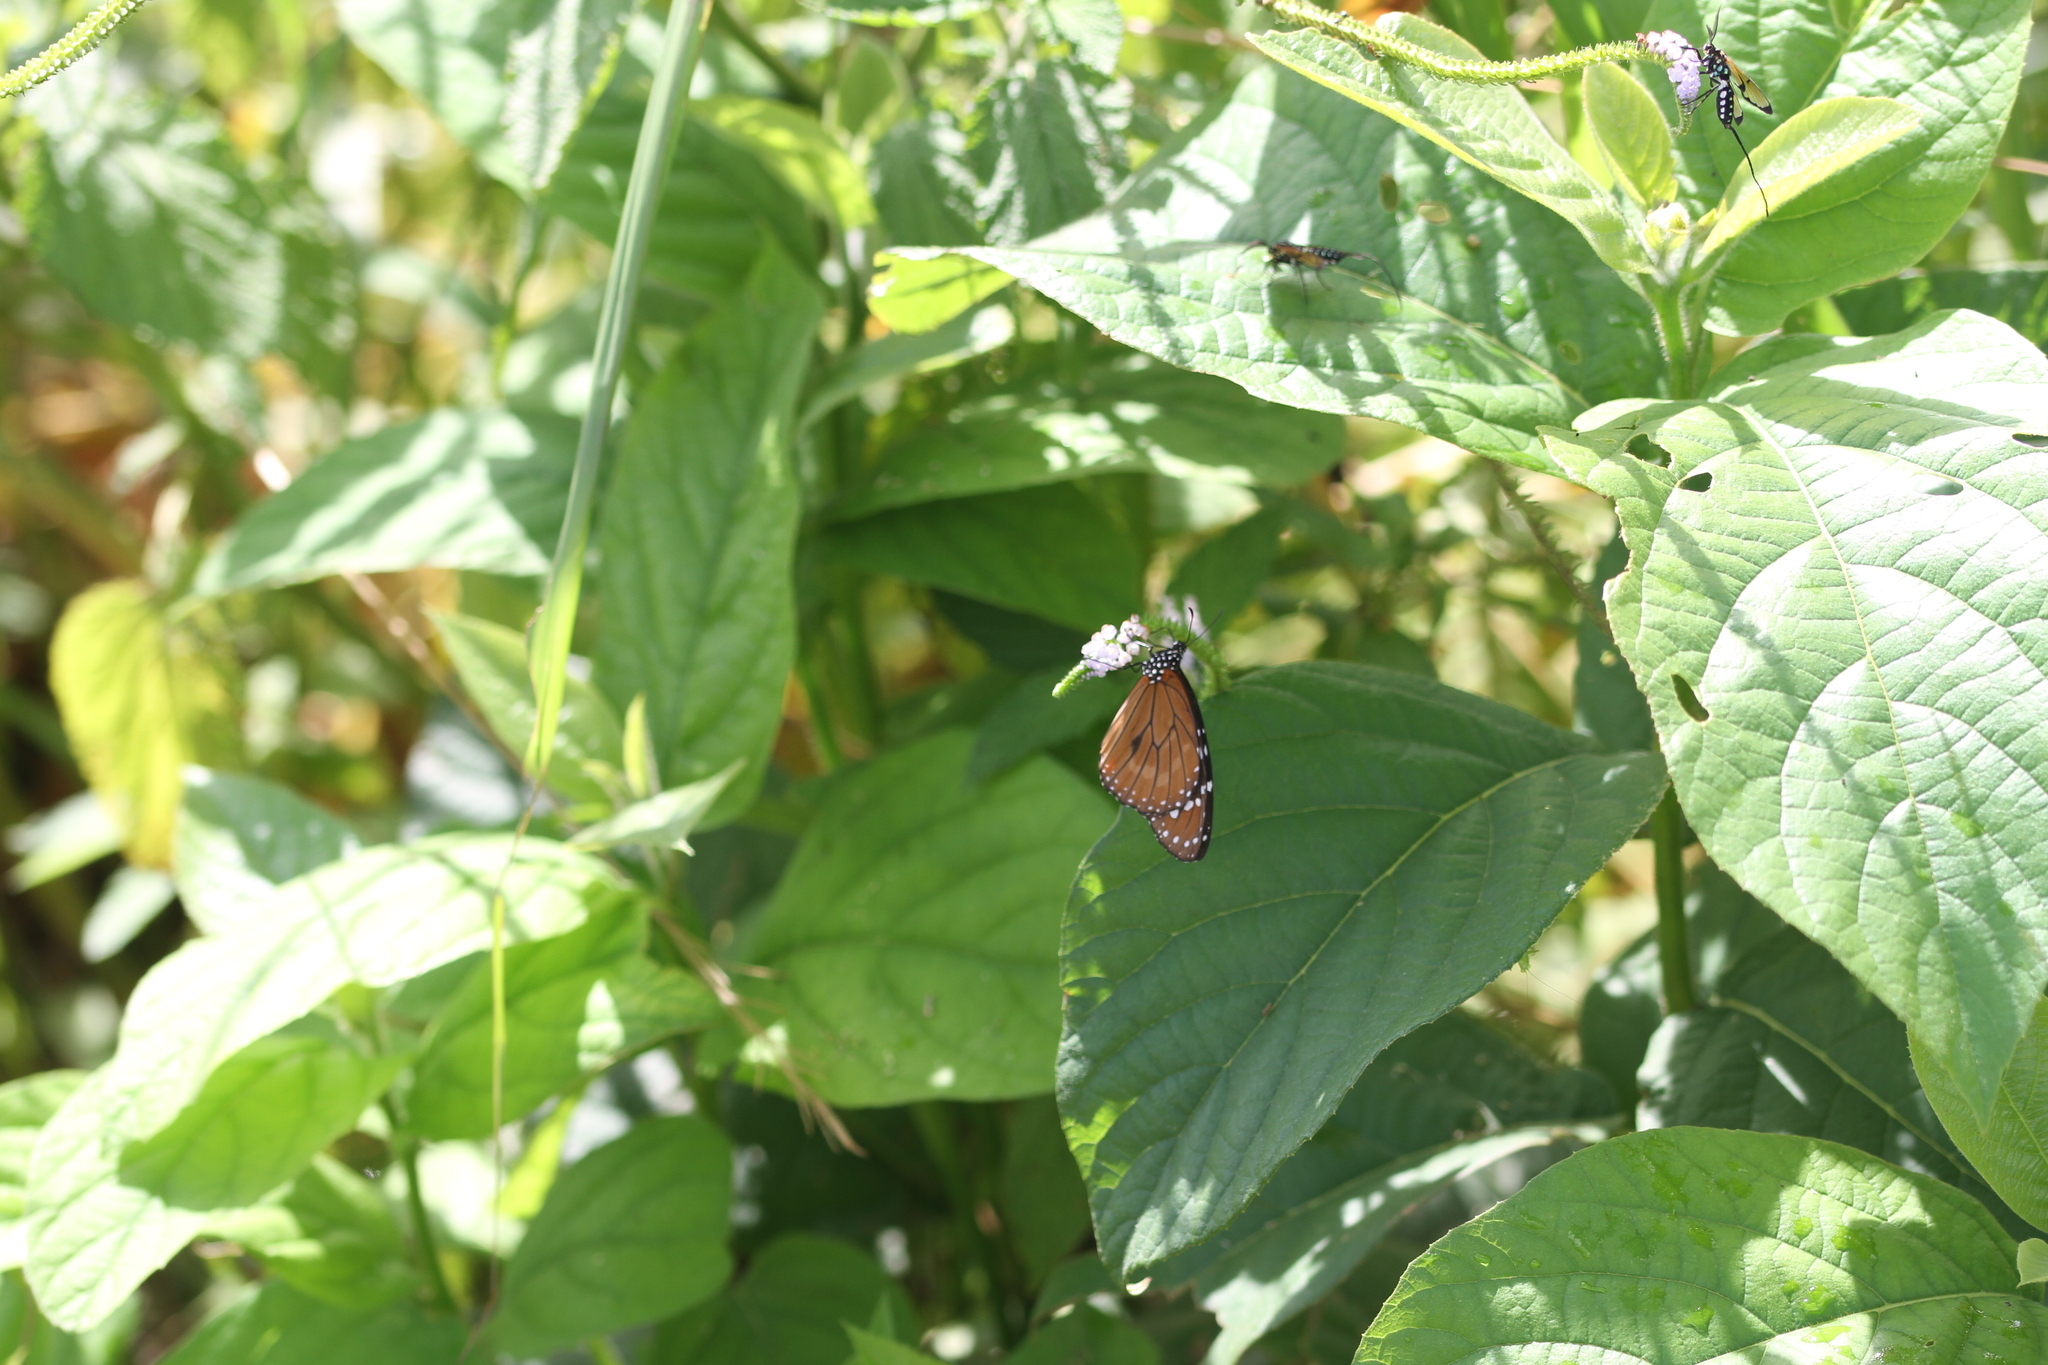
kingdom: Animalia
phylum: Arthropoda
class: Insecta
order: Lepidoptera
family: Nymphalidae
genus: Danaus
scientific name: Danaus eresimus
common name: Soldier
